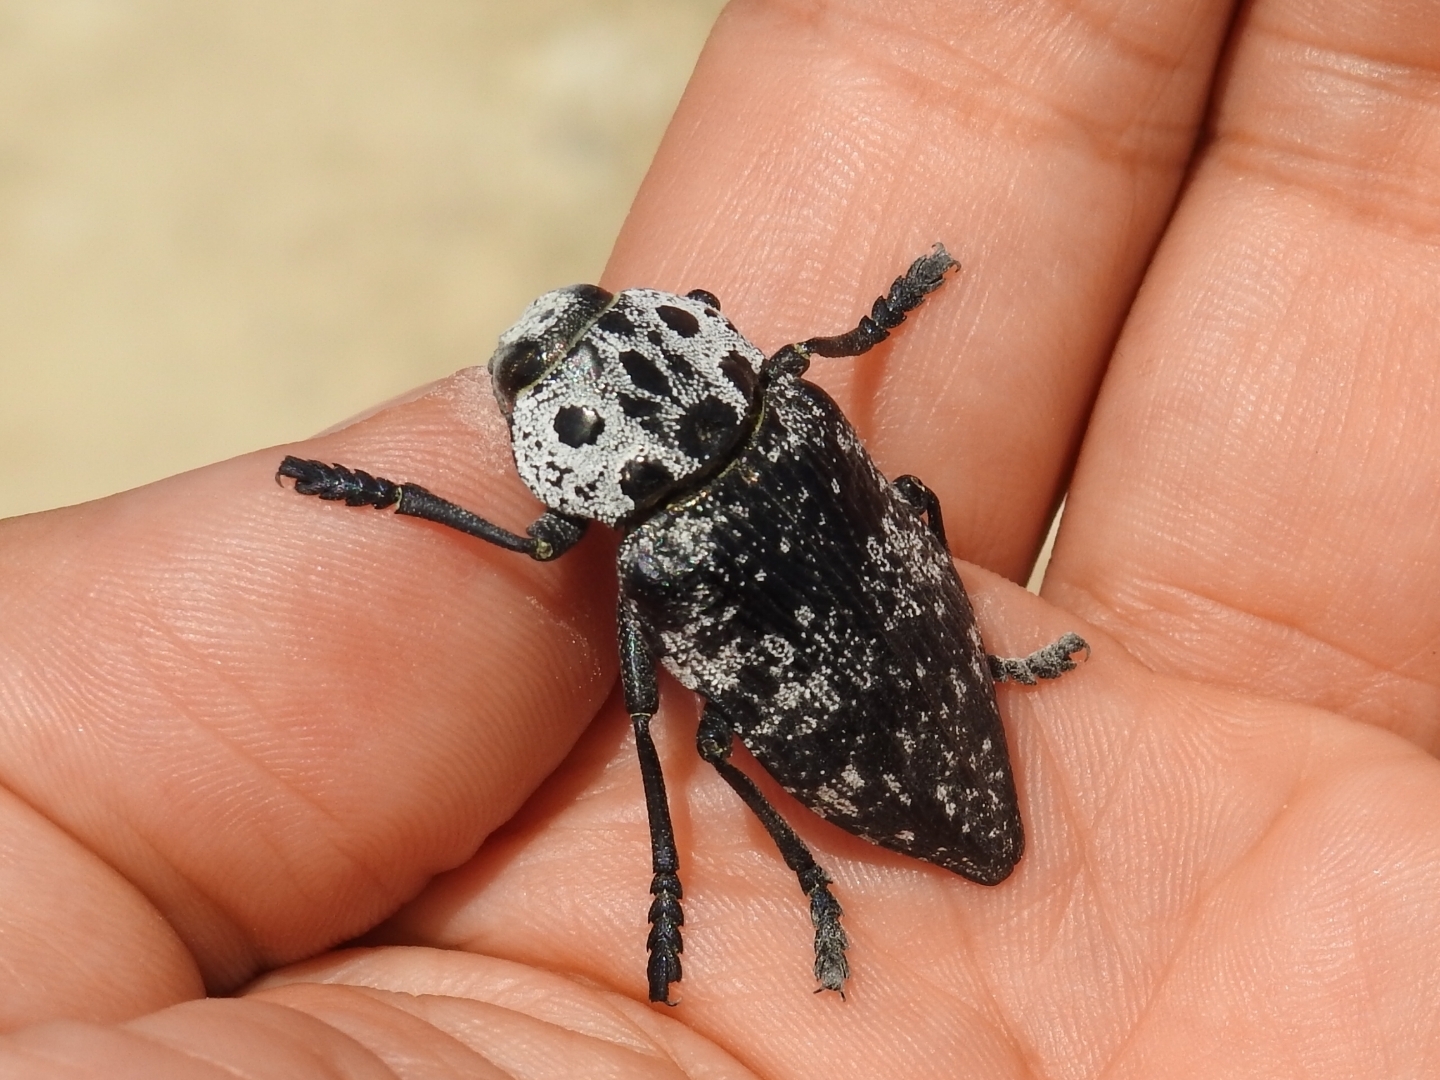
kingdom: Animalia
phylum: Arthropoda
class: Insecta
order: Coleoptera
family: Buprestidae
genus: Capnodis
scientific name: Capnodis cariosa
